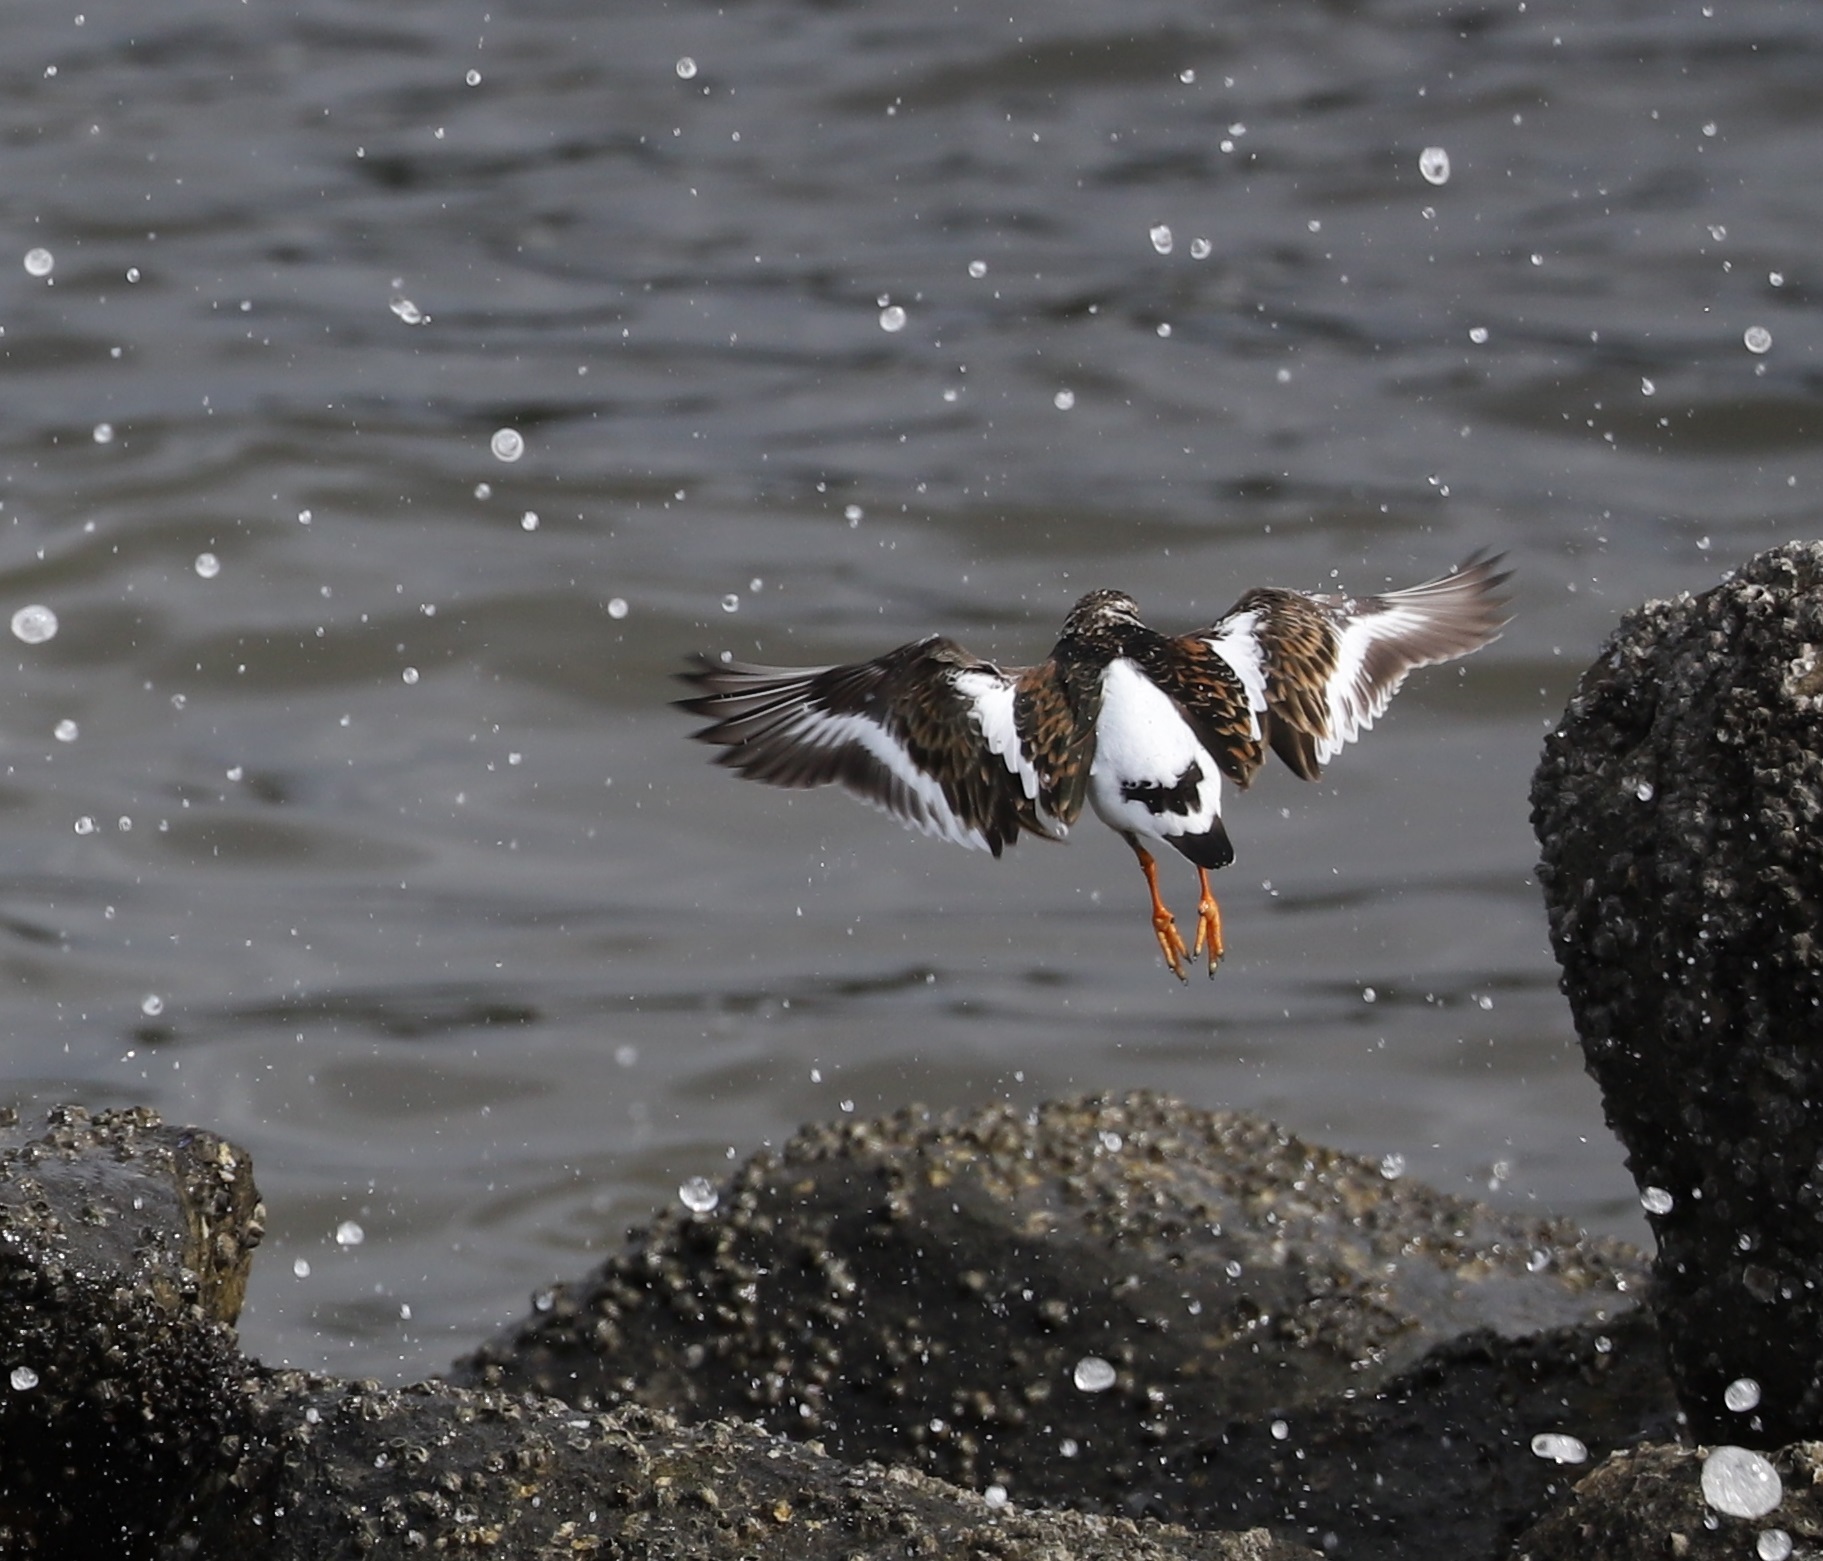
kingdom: Animalia
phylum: Chordata
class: Aves
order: Charadriiformes
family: Scolopacidae
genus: Arenaria
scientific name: Arenaria interpres
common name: Ruddy turnstone
